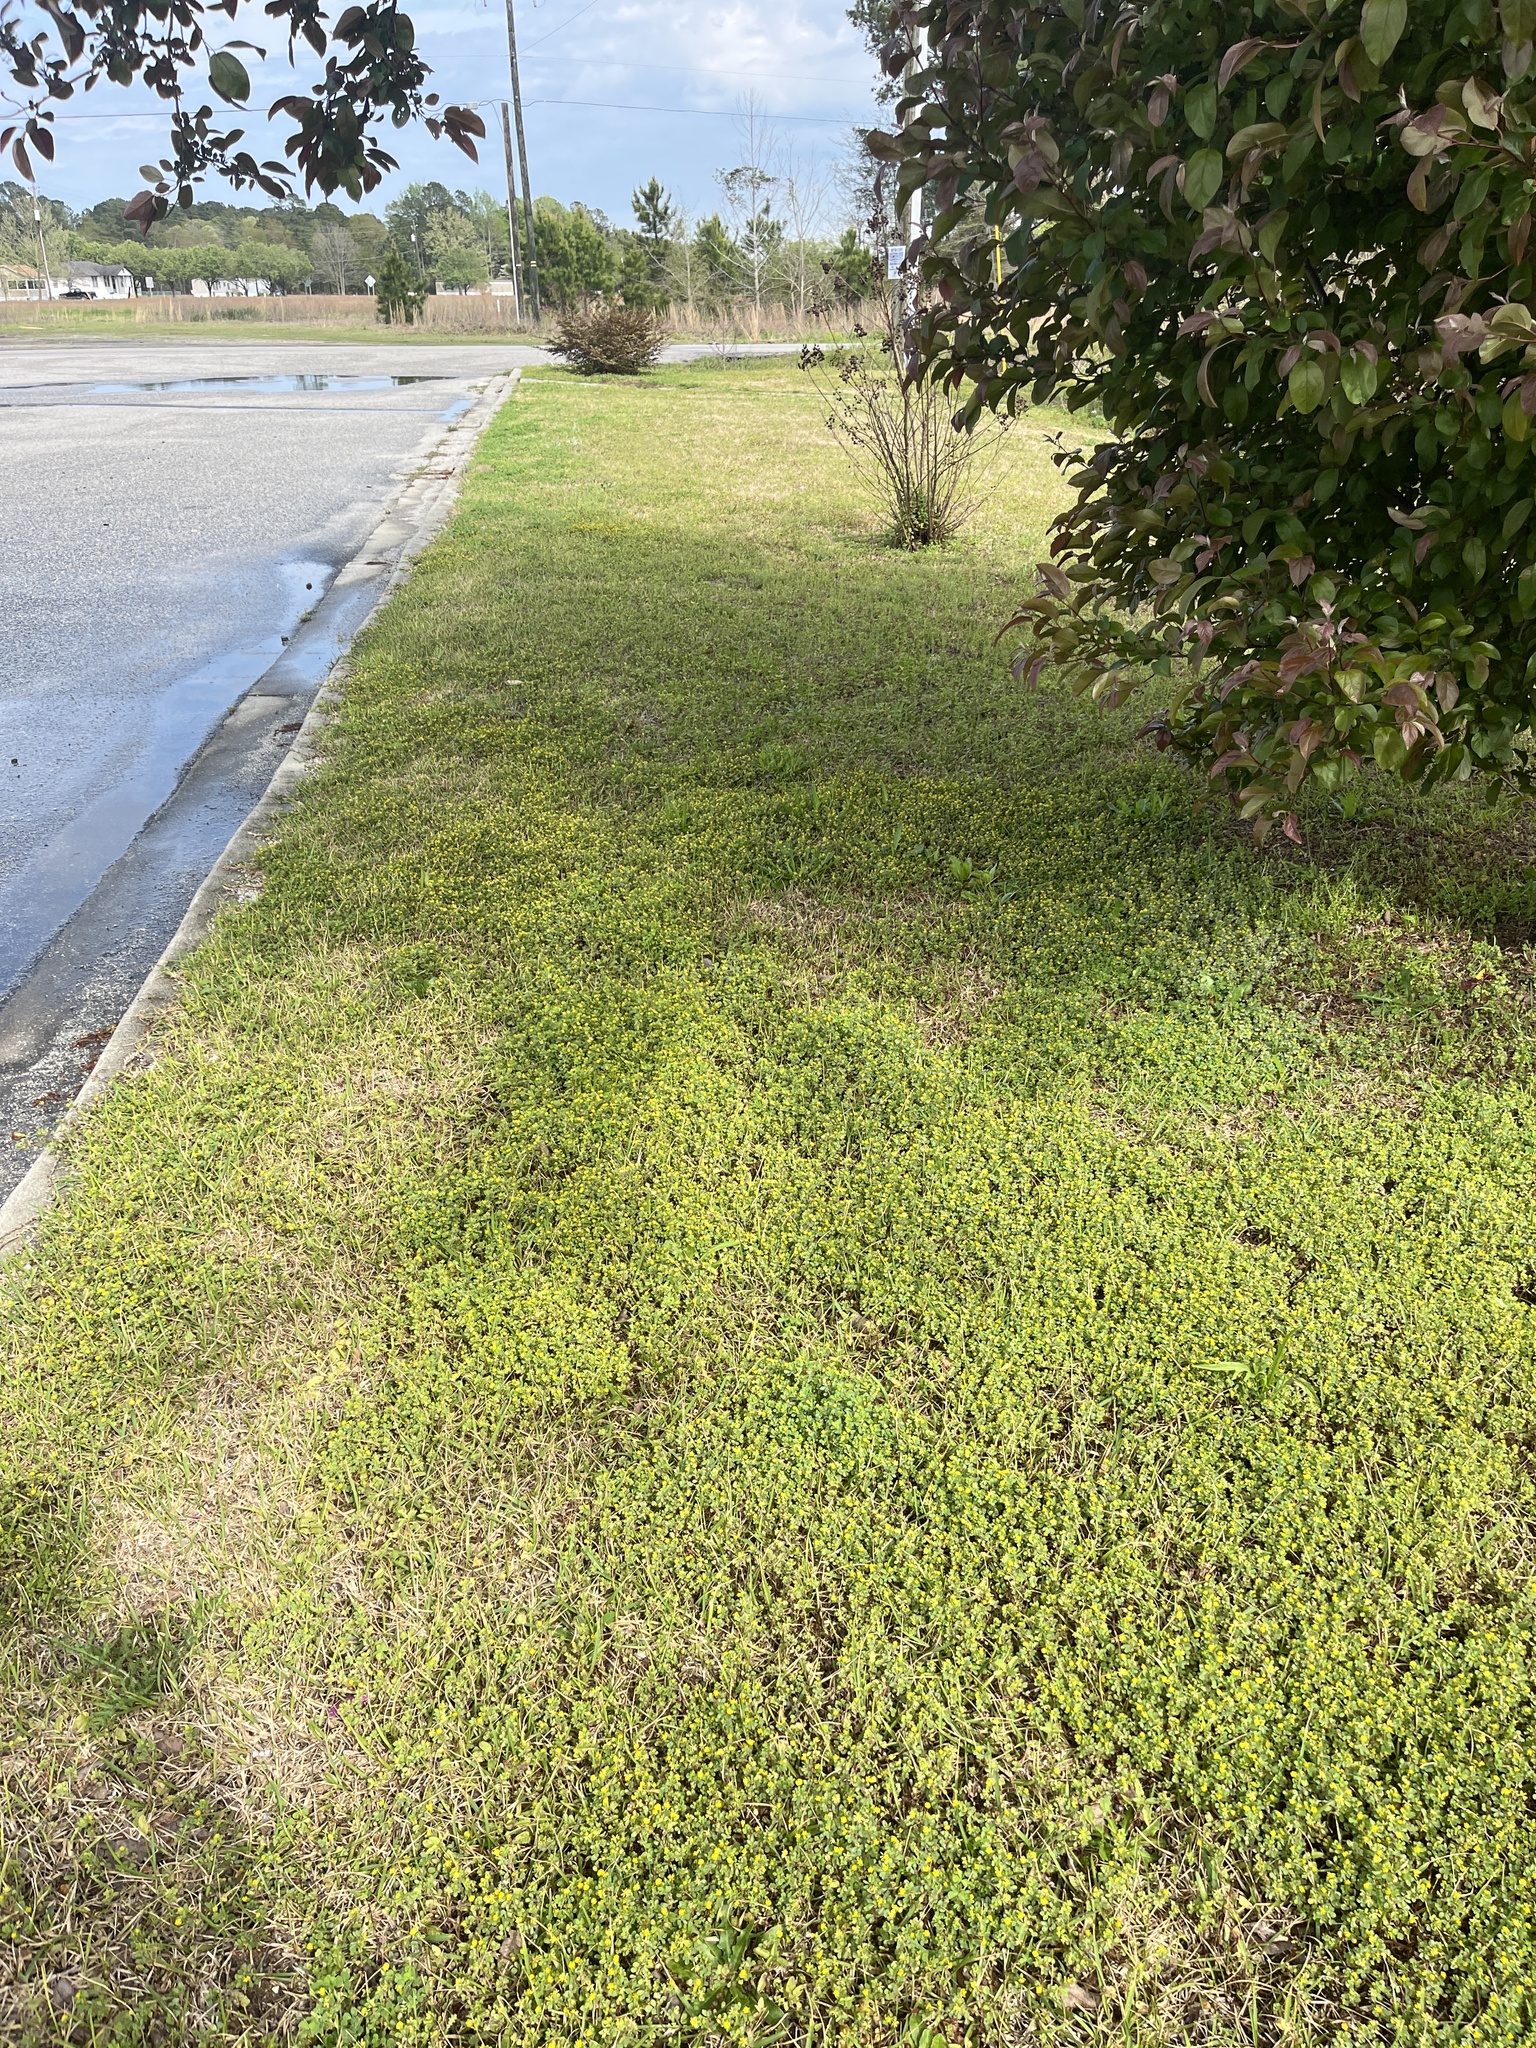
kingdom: Plantae
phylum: Tracheophyta
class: Magnoliopsida
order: Fabales
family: Fabaceae
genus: Trifolium
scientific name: Trifolium dubium
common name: Suckling clover
